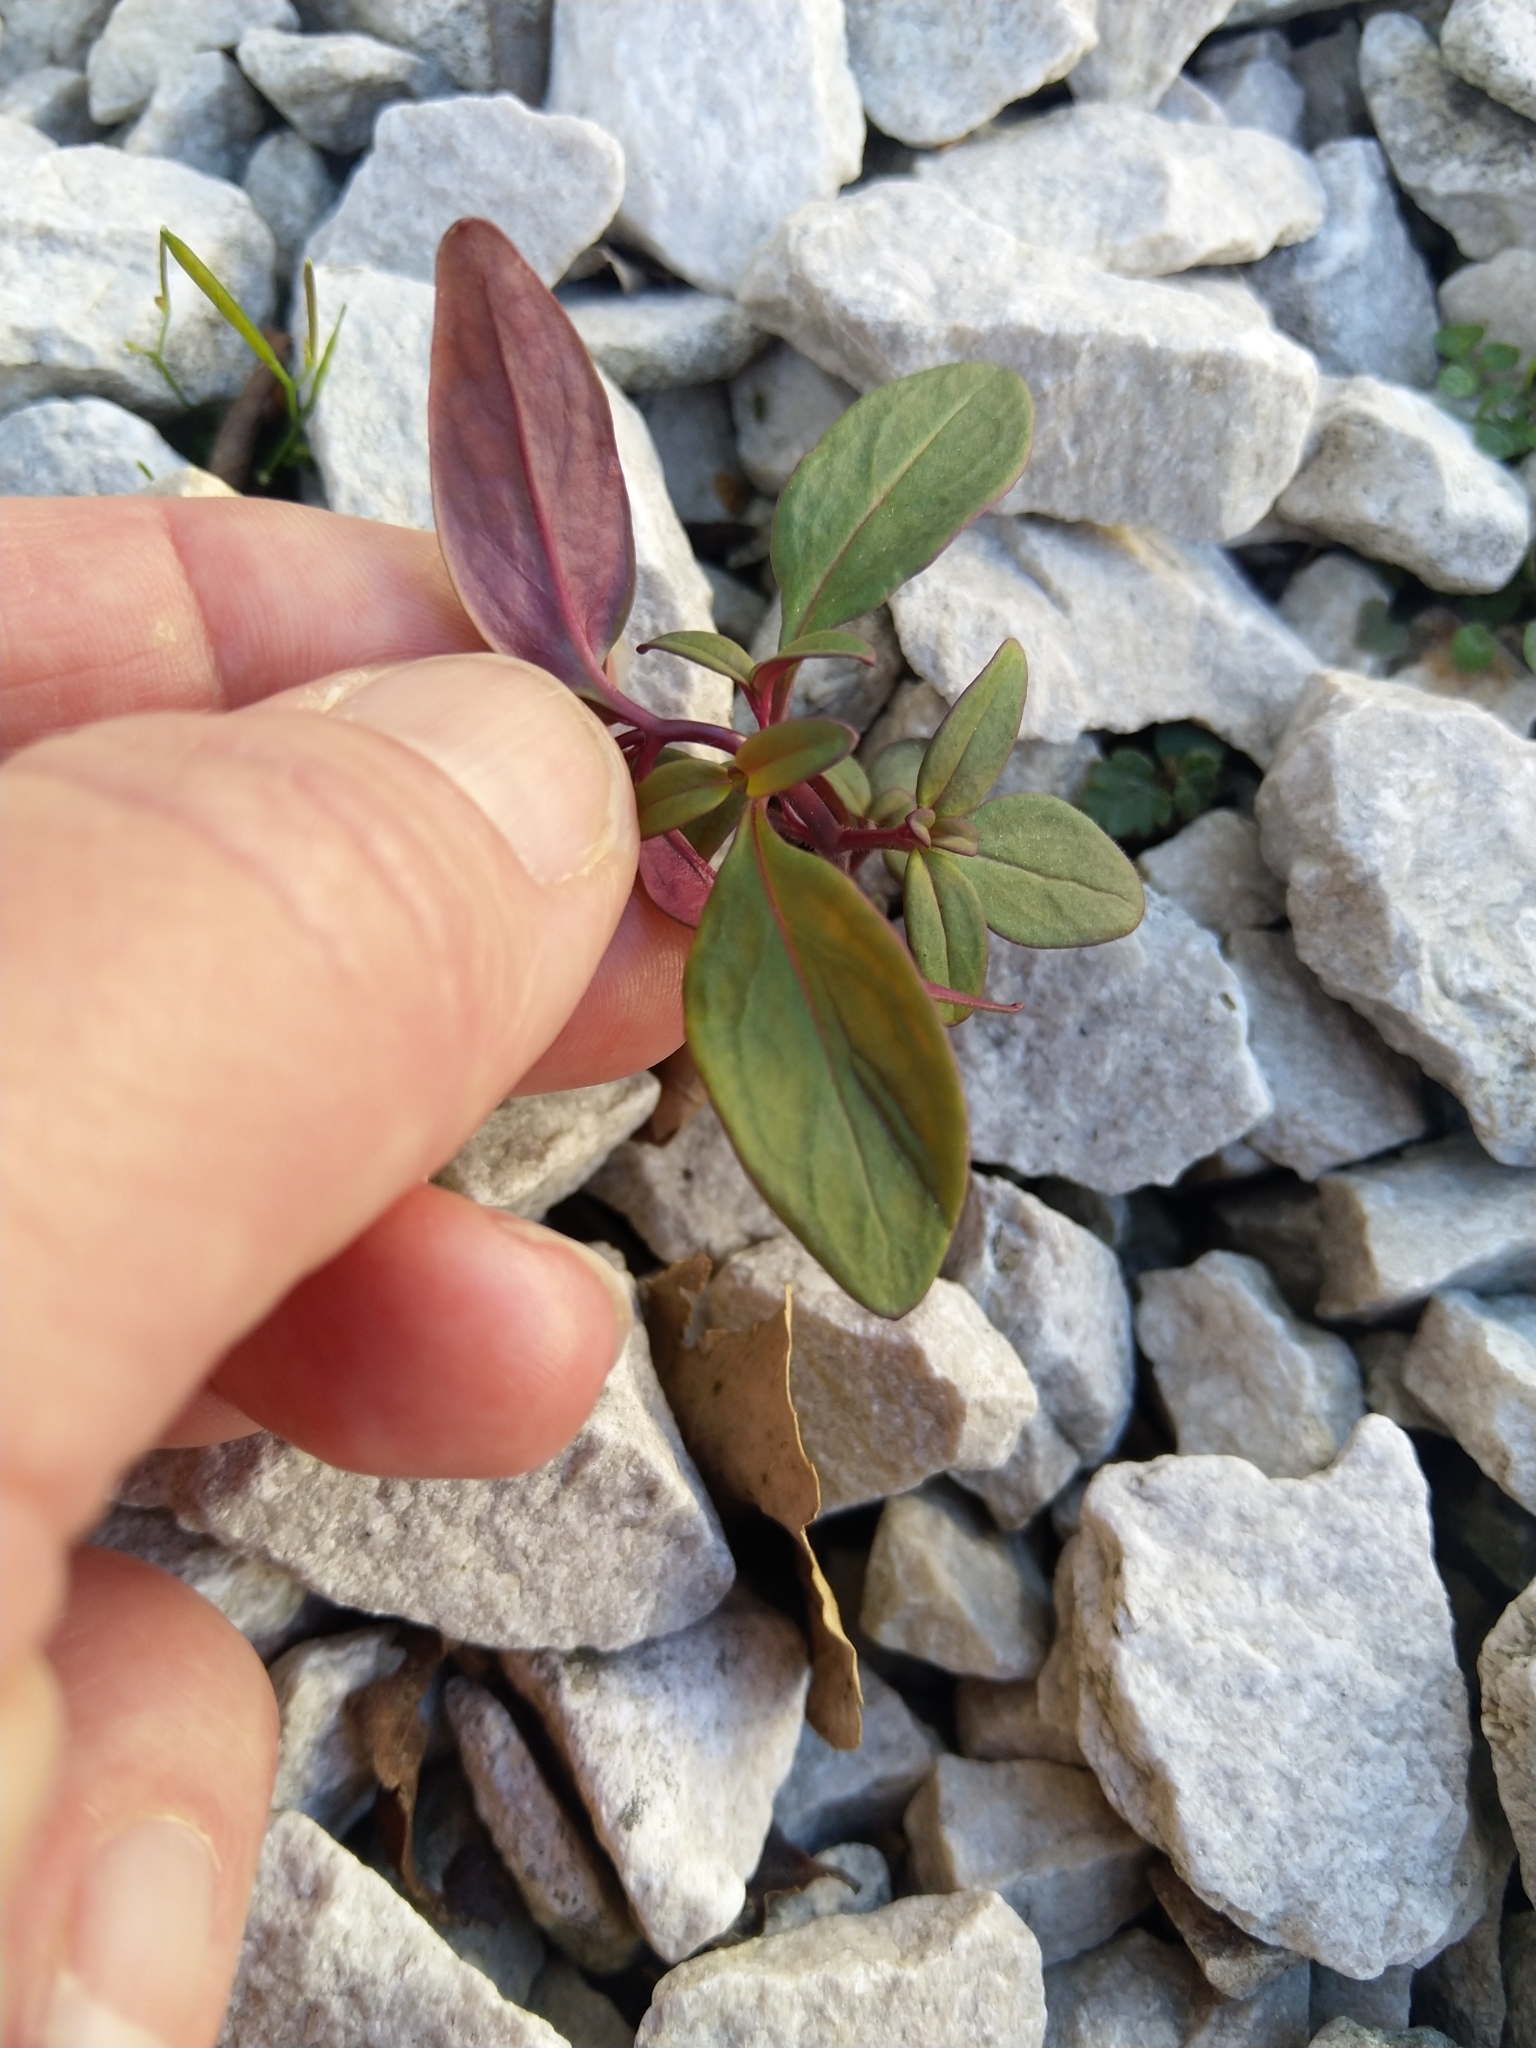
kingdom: Plantae
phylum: Tracheophyta
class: Magnoliopsida
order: Lamiales
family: Plantaginaceae
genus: Antirrhinum
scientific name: Antirrhinum majus
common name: Snapdragon
